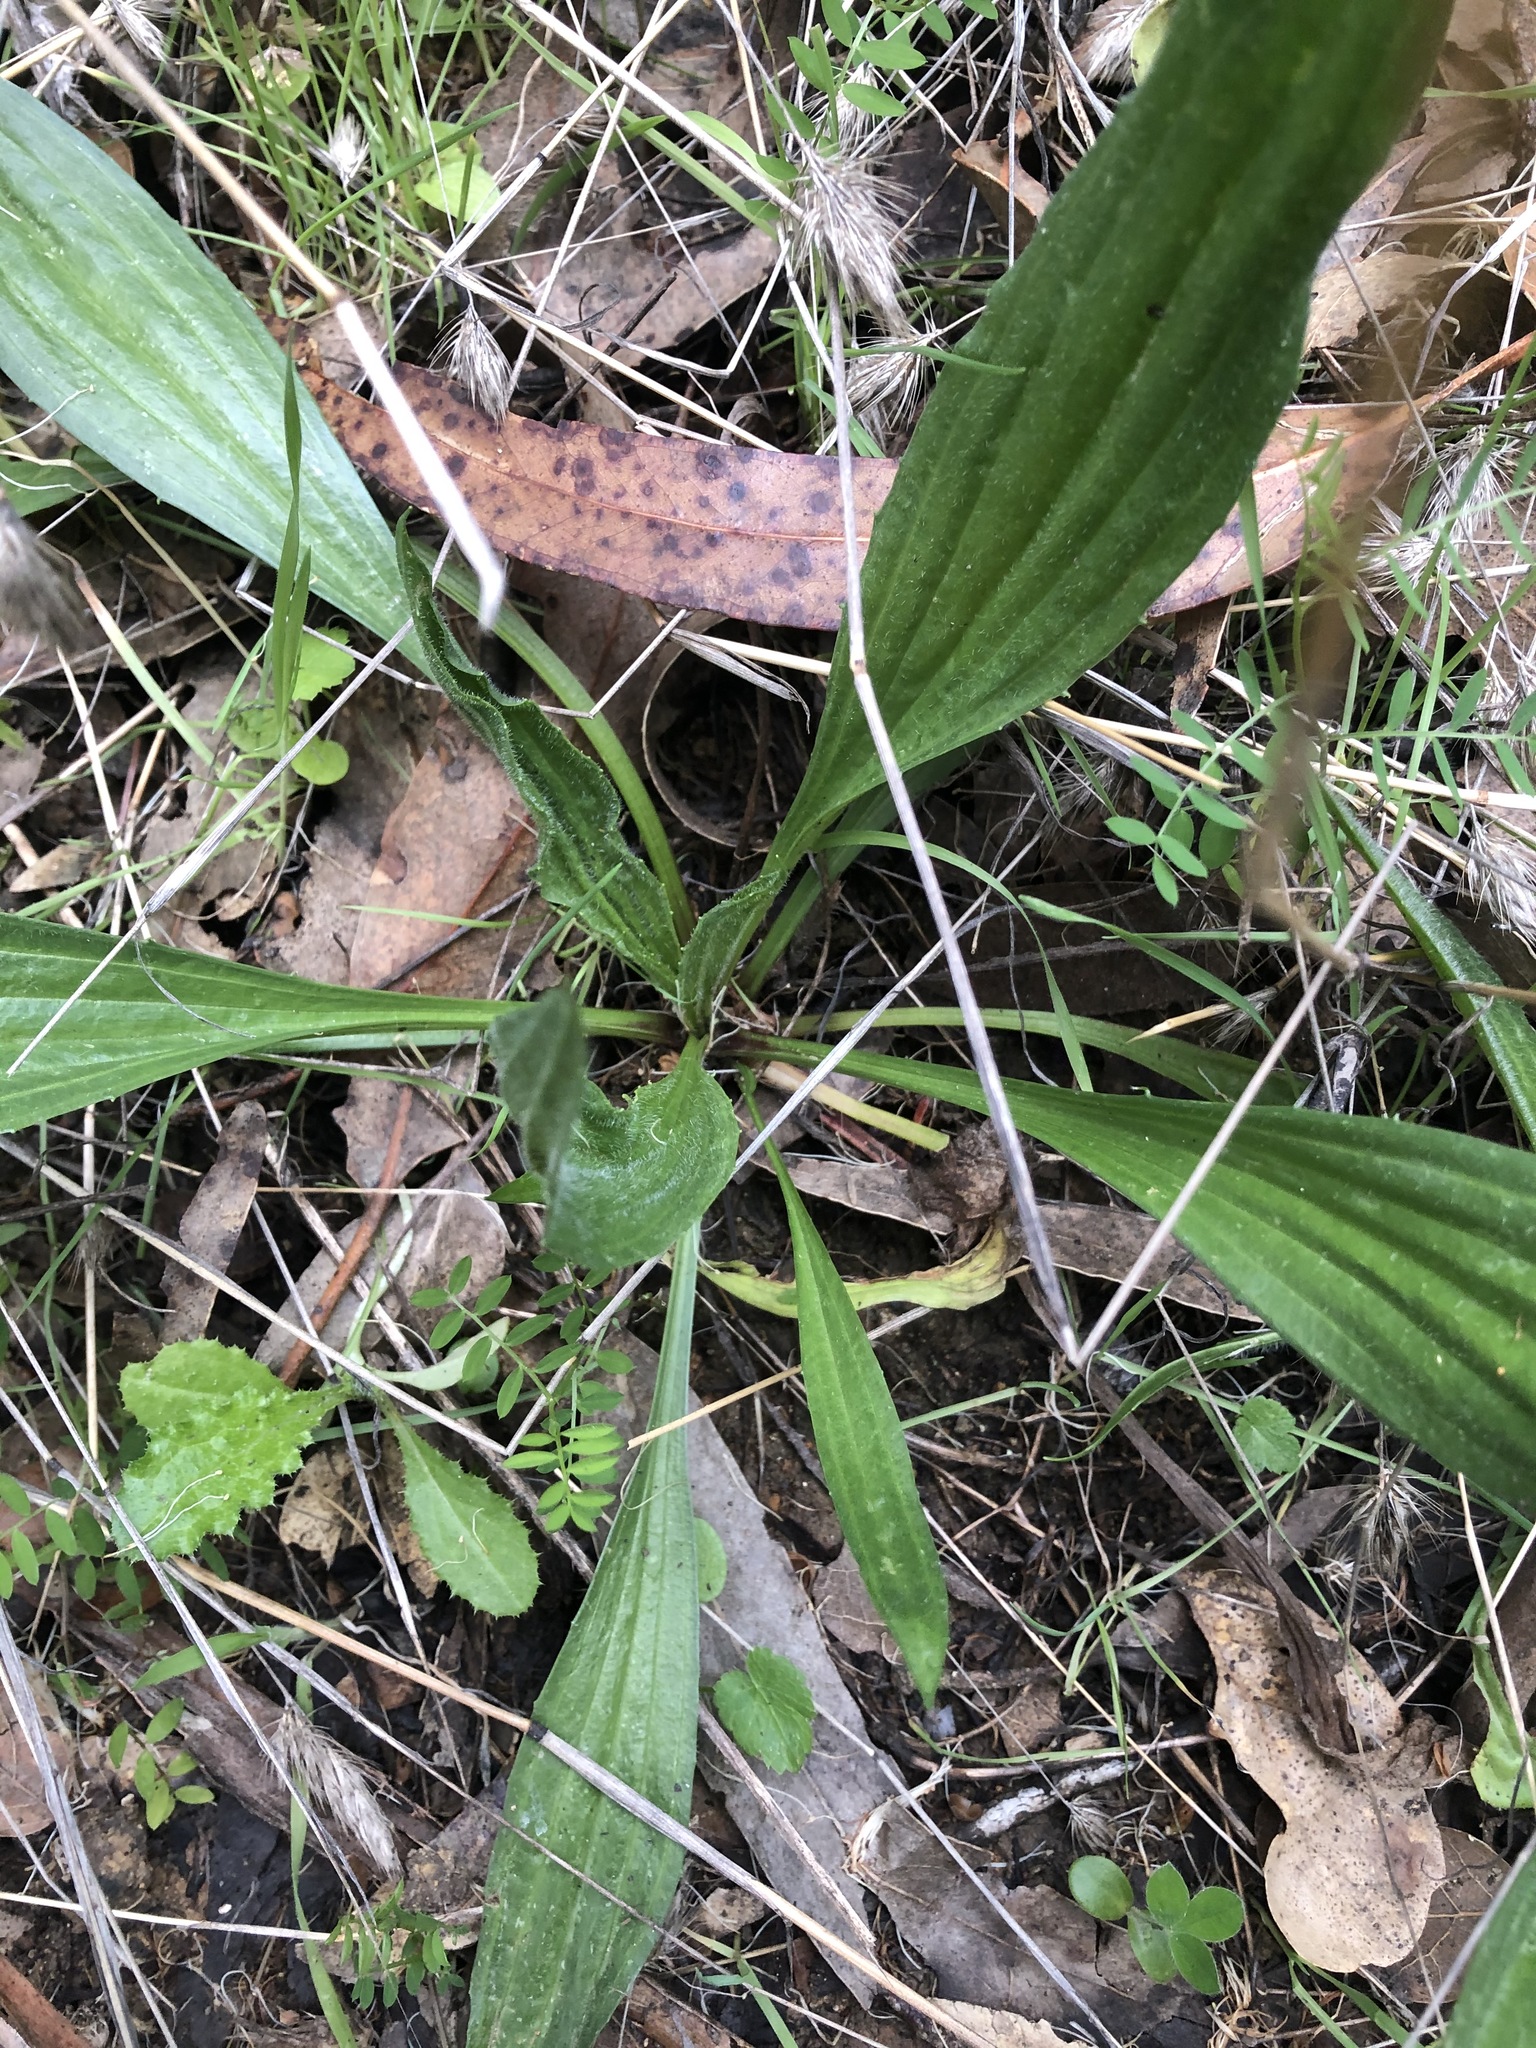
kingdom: Plantae
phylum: Tracheophyta
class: Magnoliopsida
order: Lamiales
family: Plantaginaceae
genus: Plantago
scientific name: Plantago lanceolata
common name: Ribwort plantain
